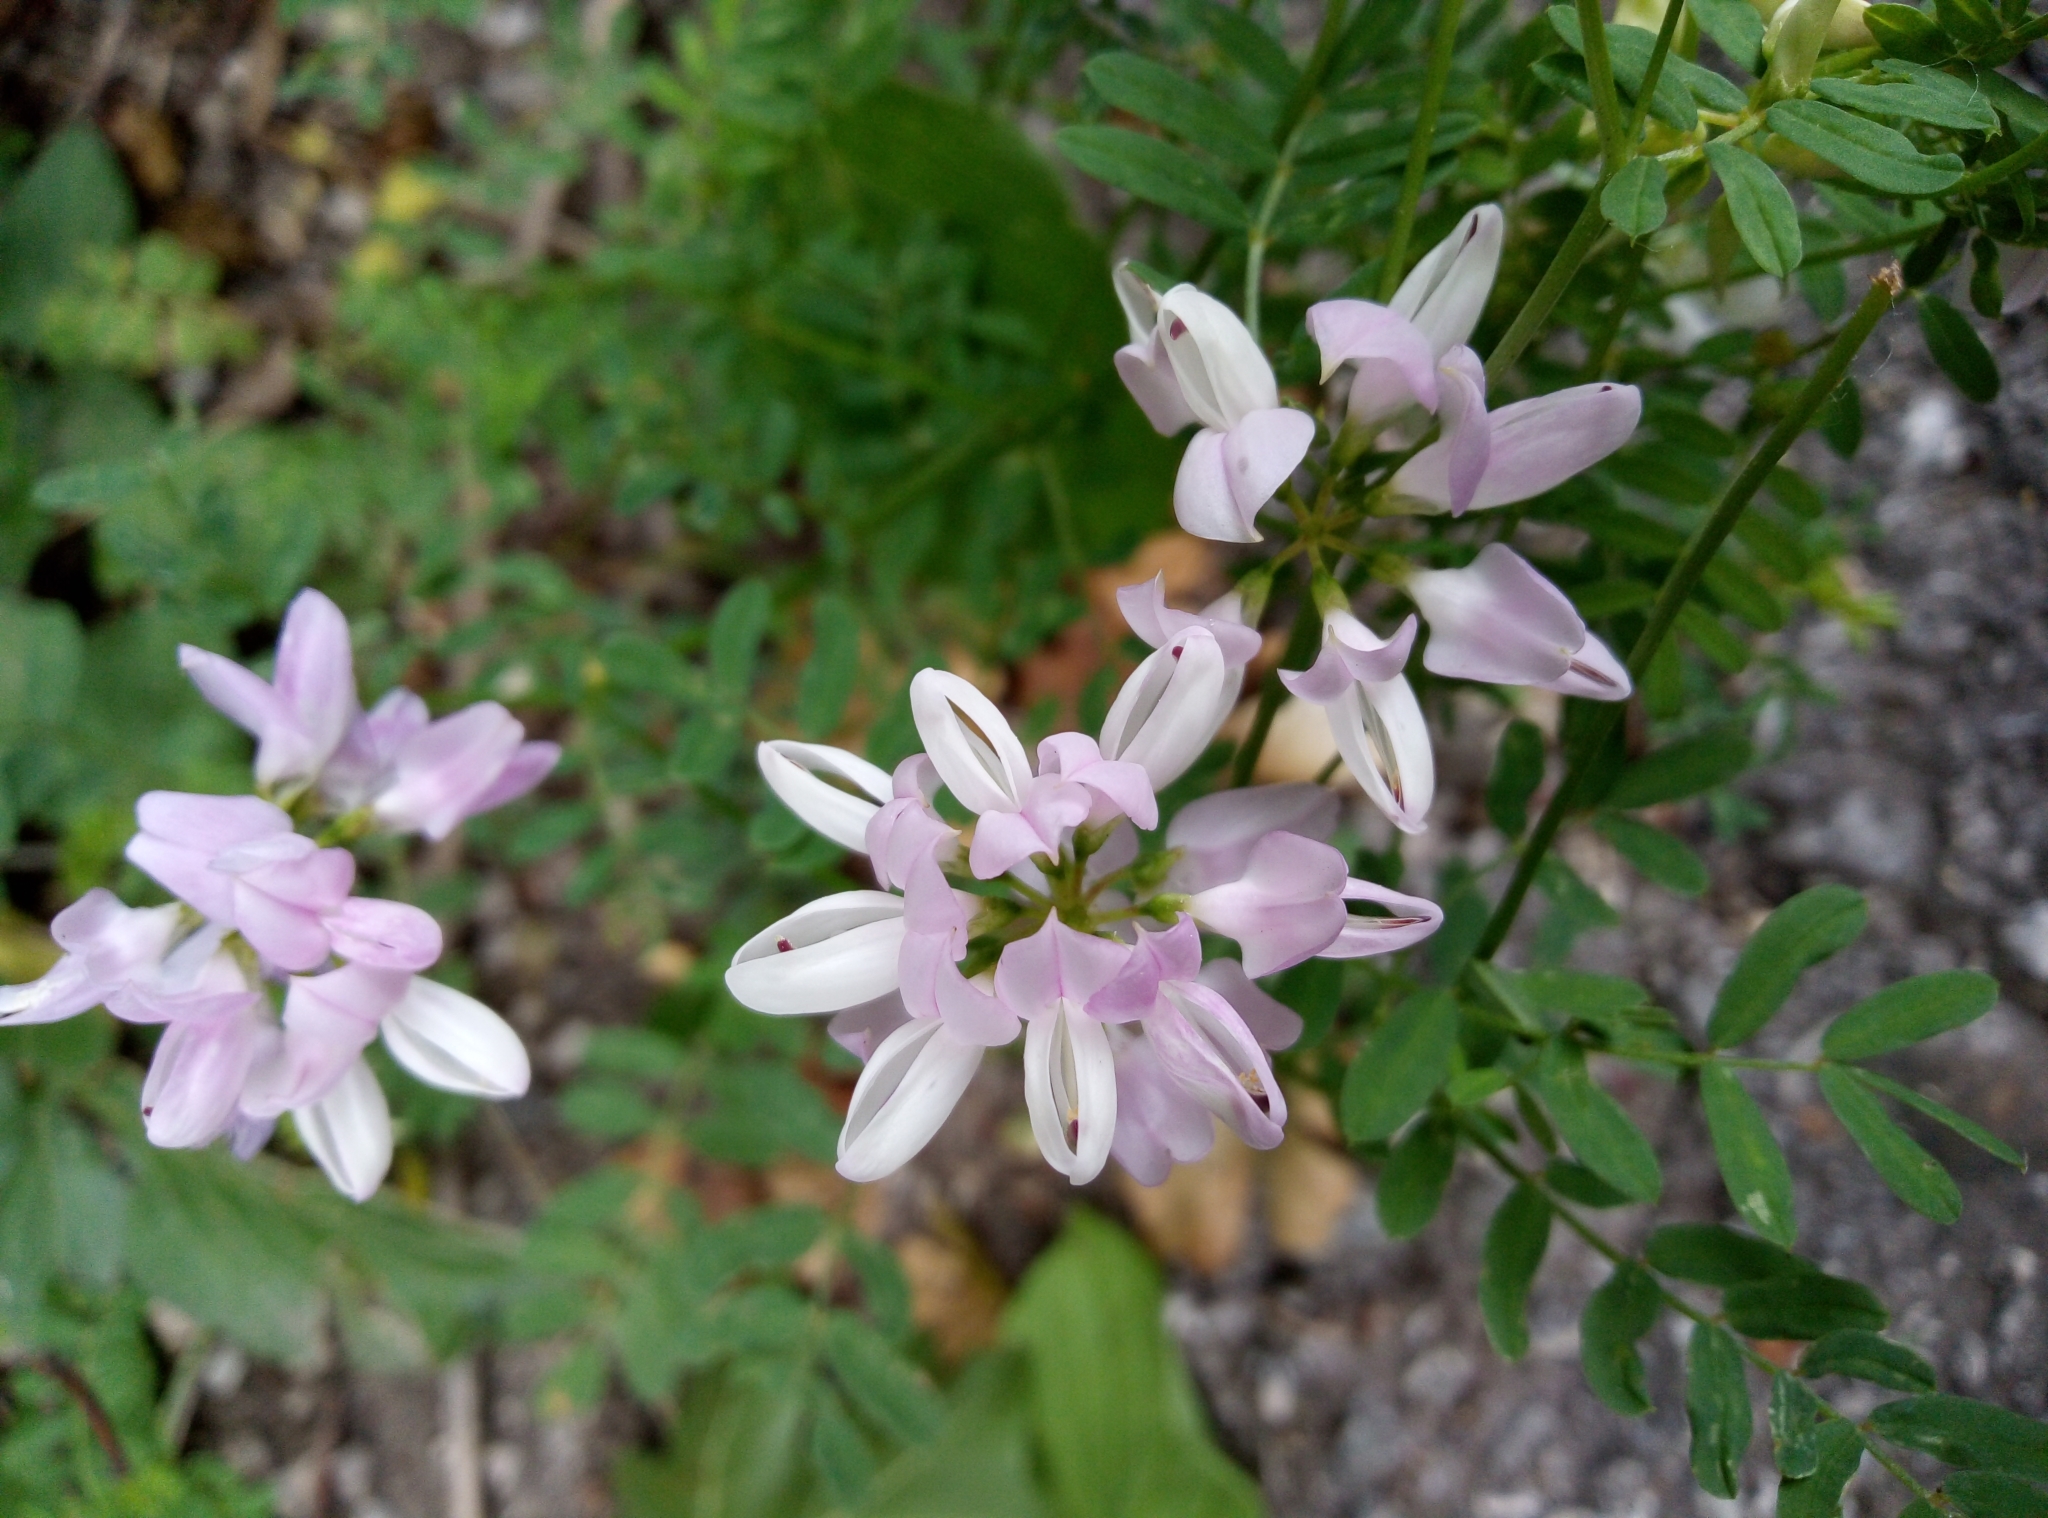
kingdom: Plantae
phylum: Tracheophyta
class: Magnoliopsida
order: Fabales
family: Fabaceae
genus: Coronilla
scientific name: Coronilla varia
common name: Crownvetch
